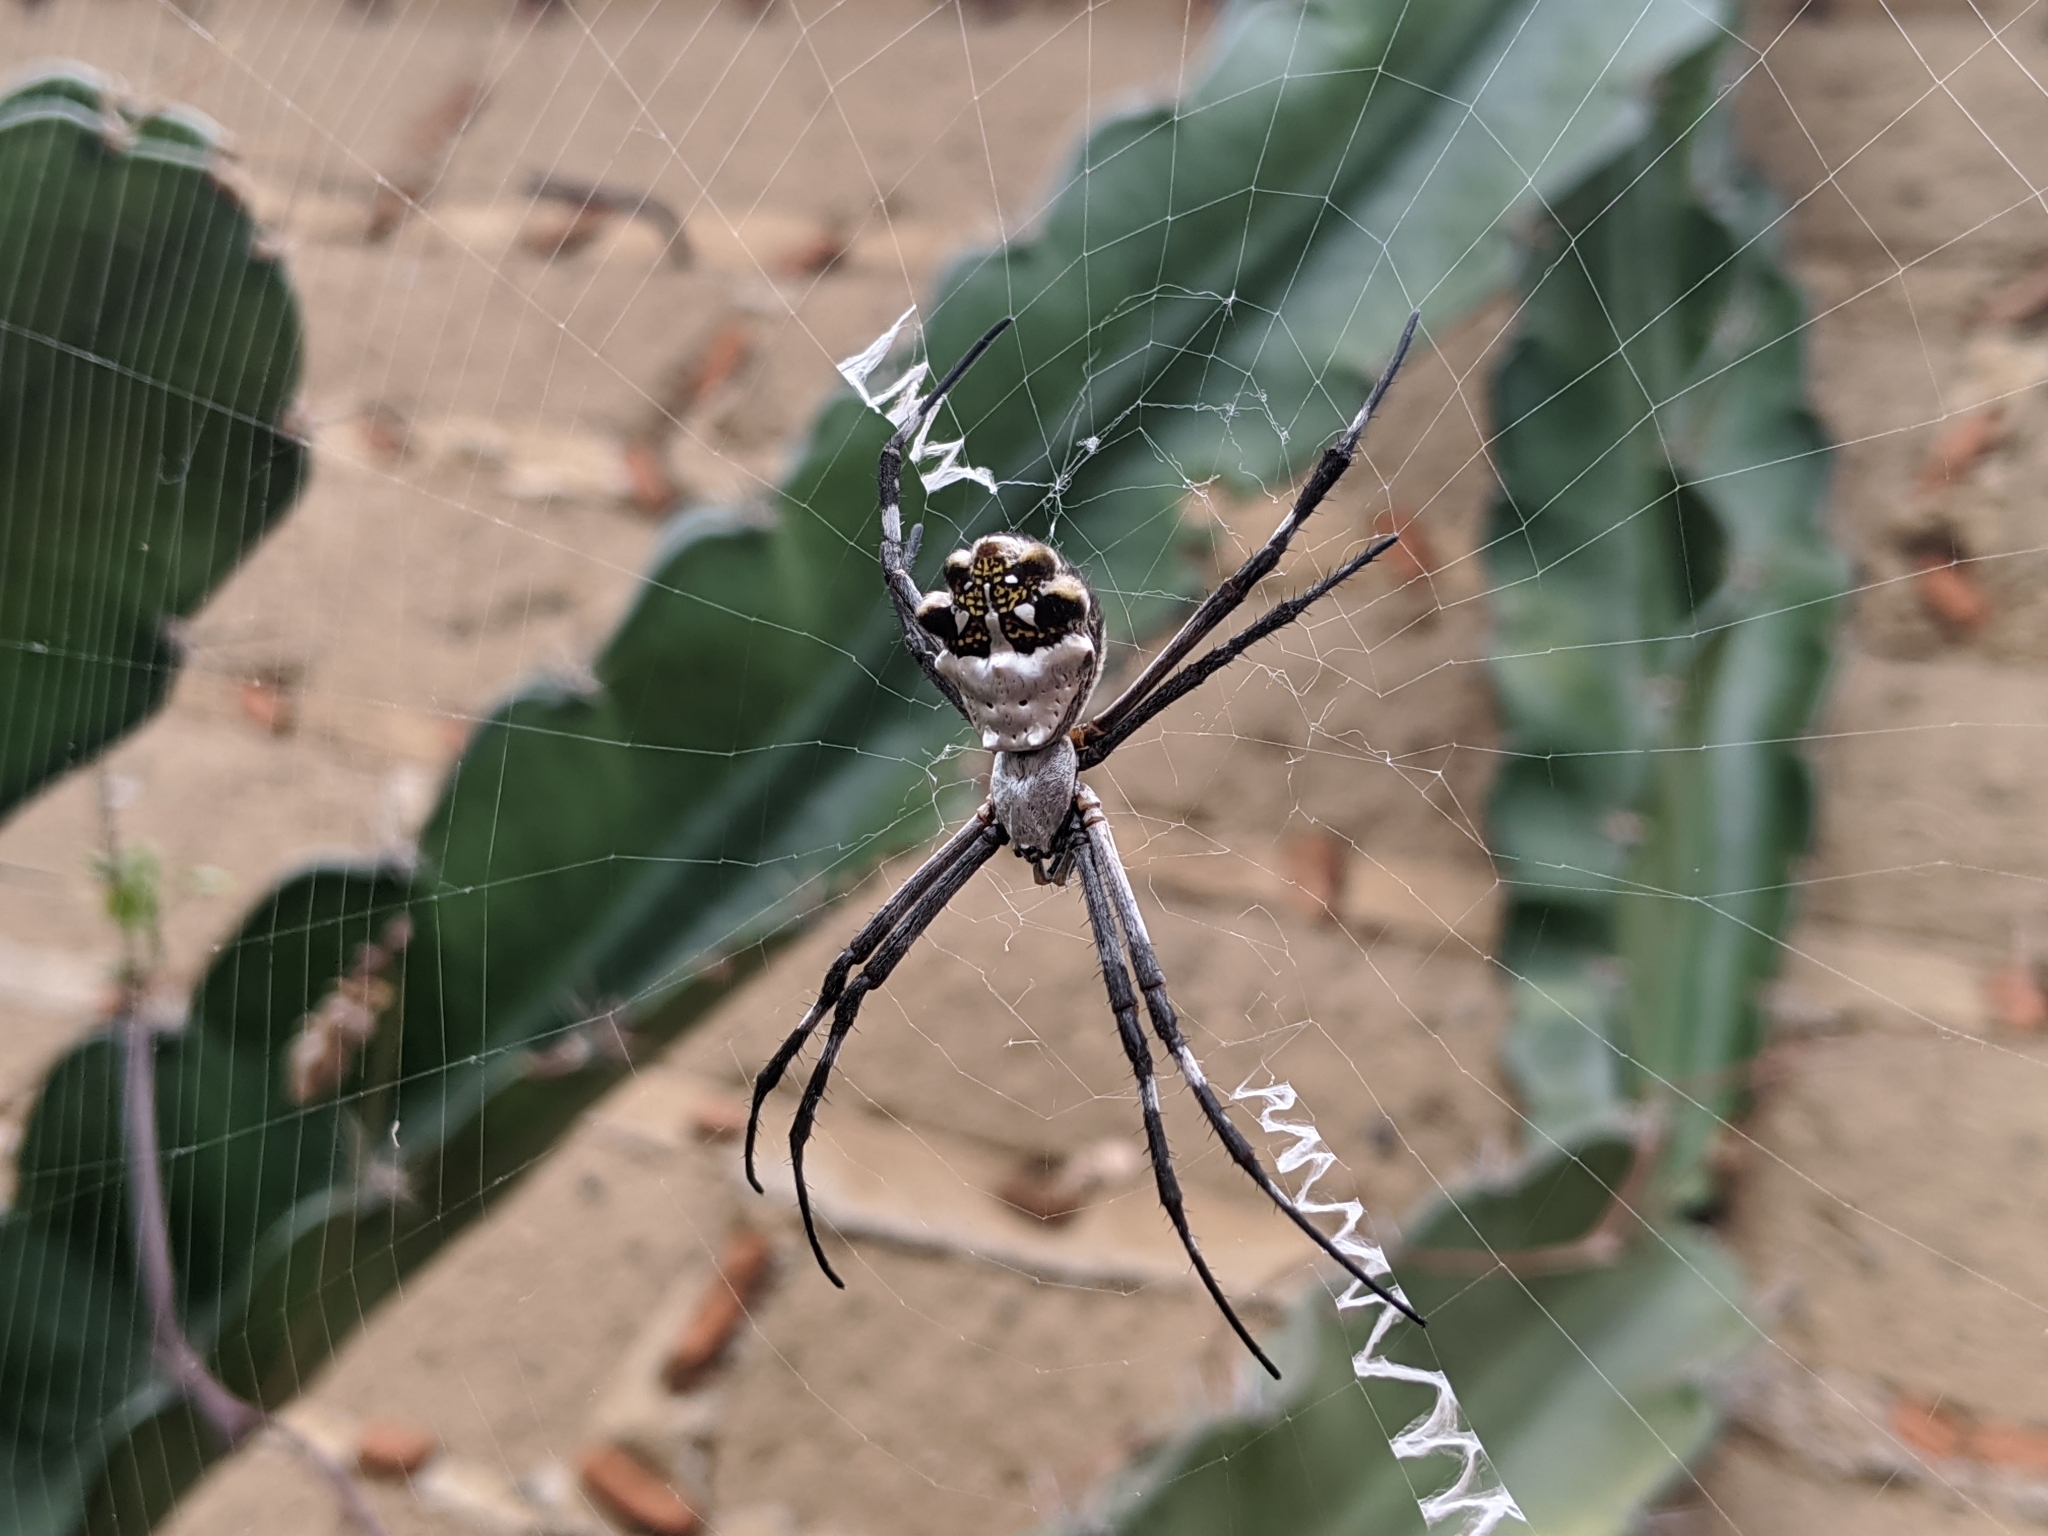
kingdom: Animalia
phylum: Arthropoda
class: Arachnida
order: Araneae
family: Araneidae
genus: Argiope
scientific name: Argiope argentata
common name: Orb weavers
